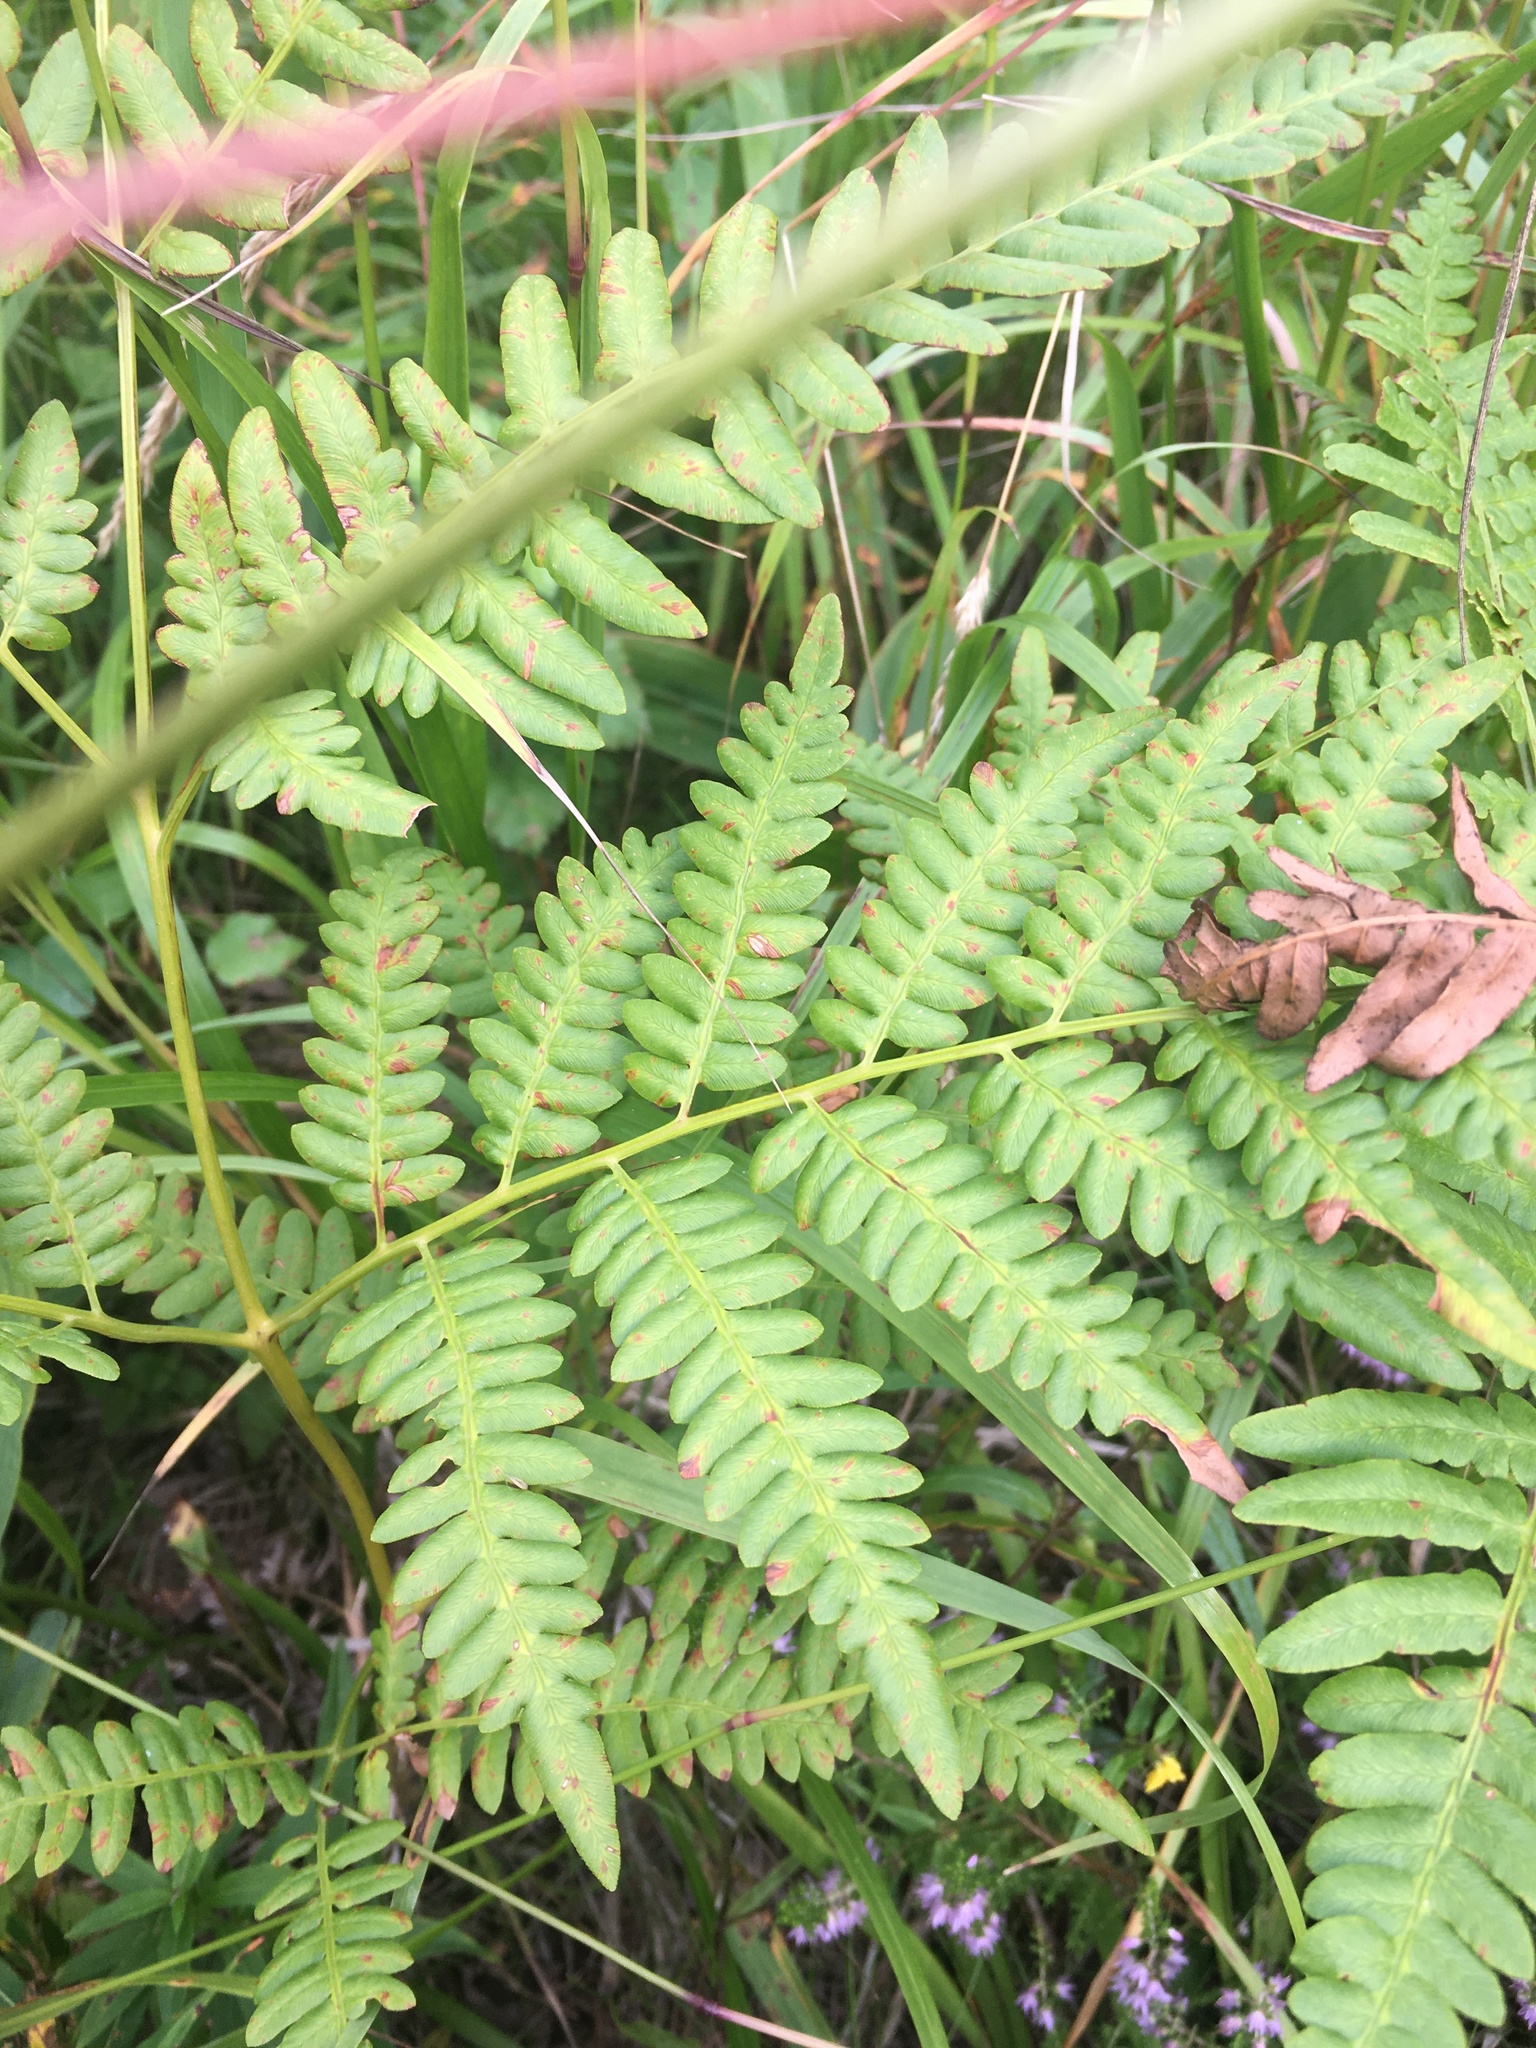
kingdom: Plantae
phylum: Tracheophyta
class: Polypodiopsida
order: Polypodiales
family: Dennstaedtiaceae
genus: Pteridium
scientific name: Pteridium aquilinum
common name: Bracken
